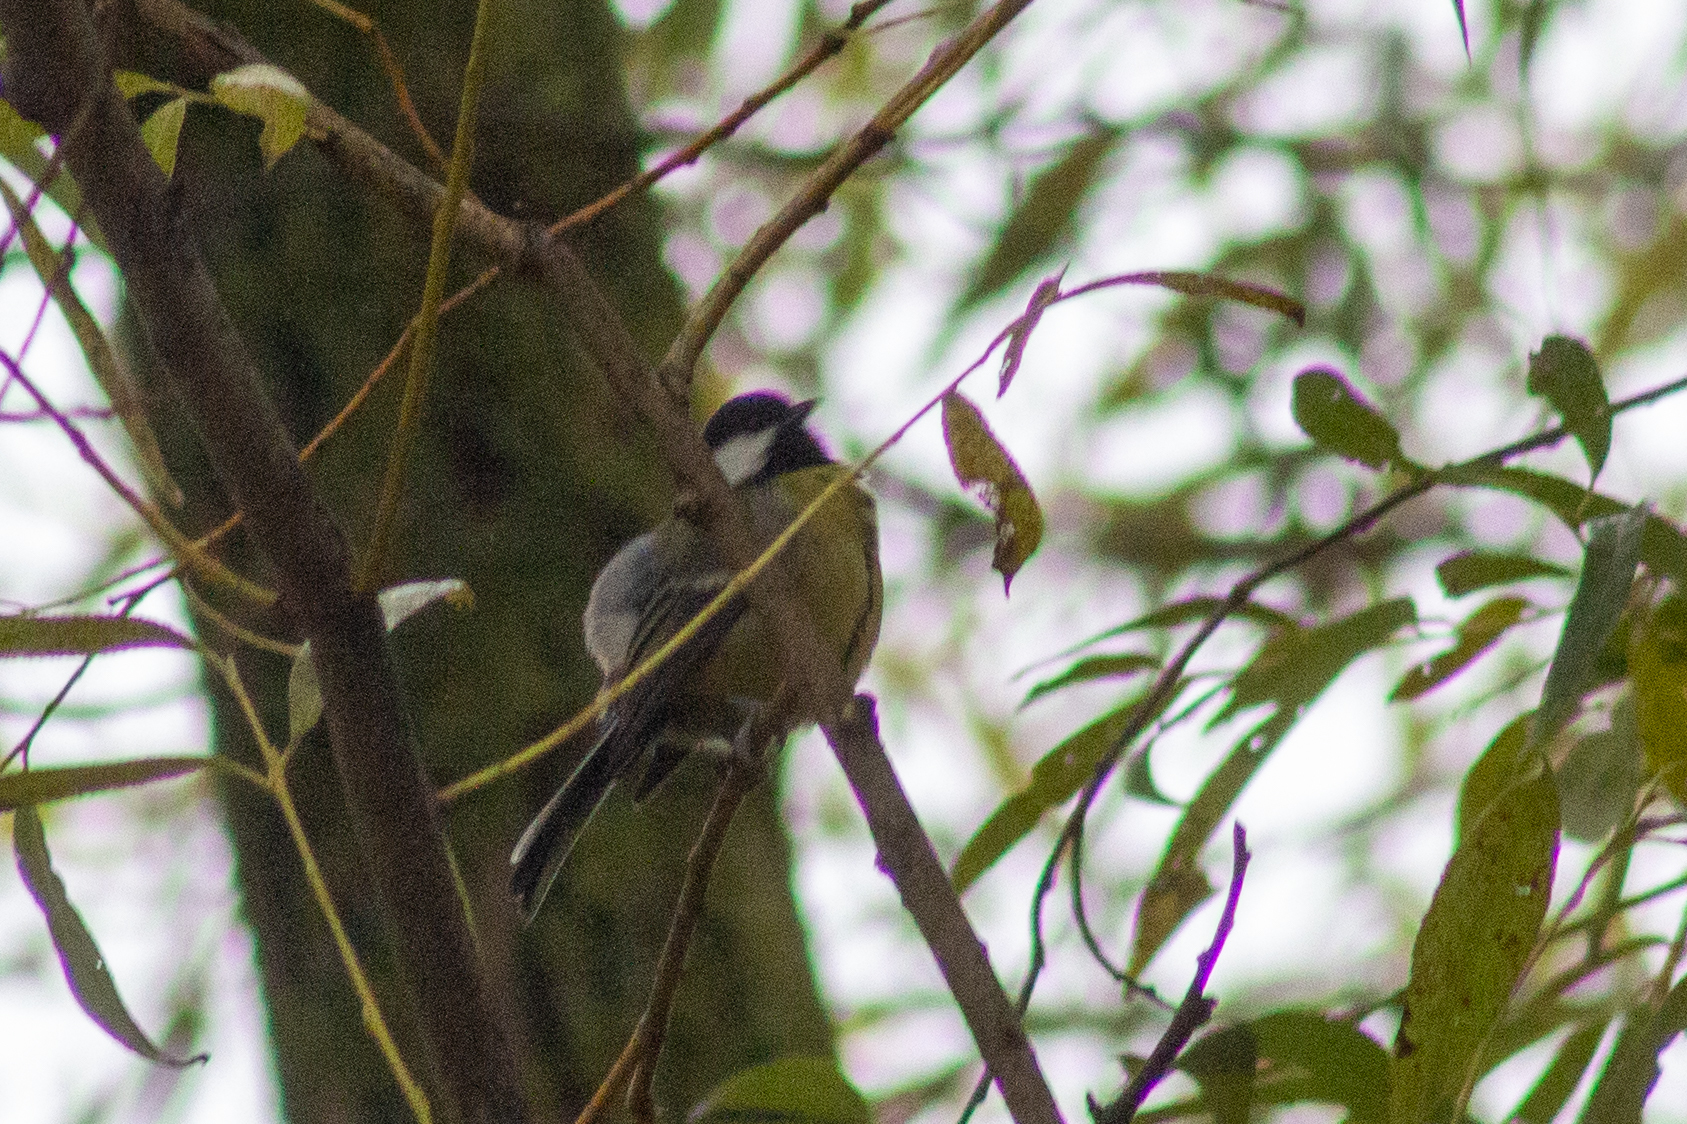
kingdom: Animalia
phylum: Chordata
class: Aves
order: Passeriformes
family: Paridae
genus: Parus
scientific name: Parus major
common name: Great tit
